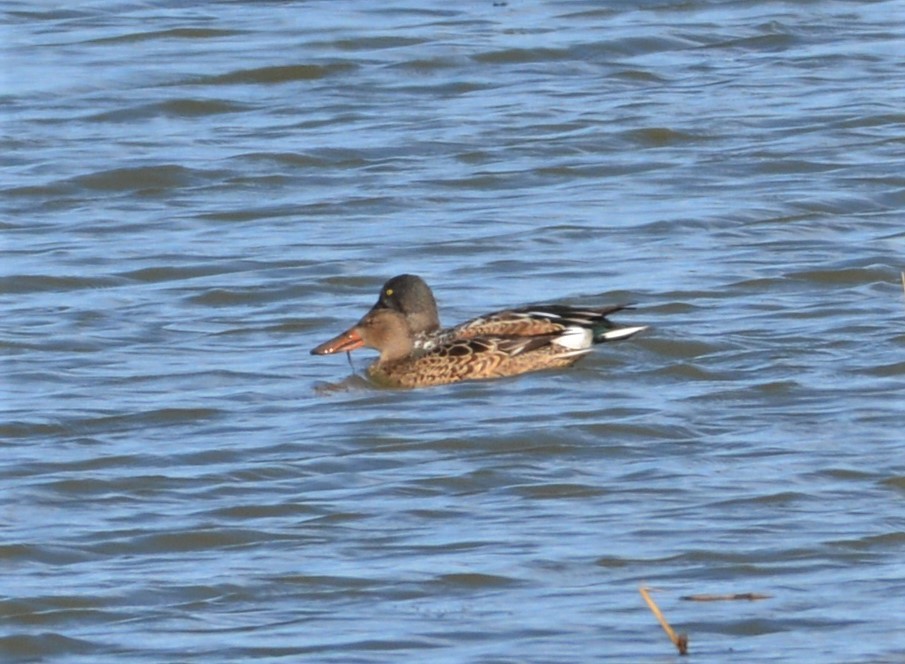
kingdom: Animalia
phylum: Chordata
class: Aves
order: Anseriformes
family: Anatidae
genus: Spatula
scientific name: Spatula clypeata
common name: Northern shoveler
